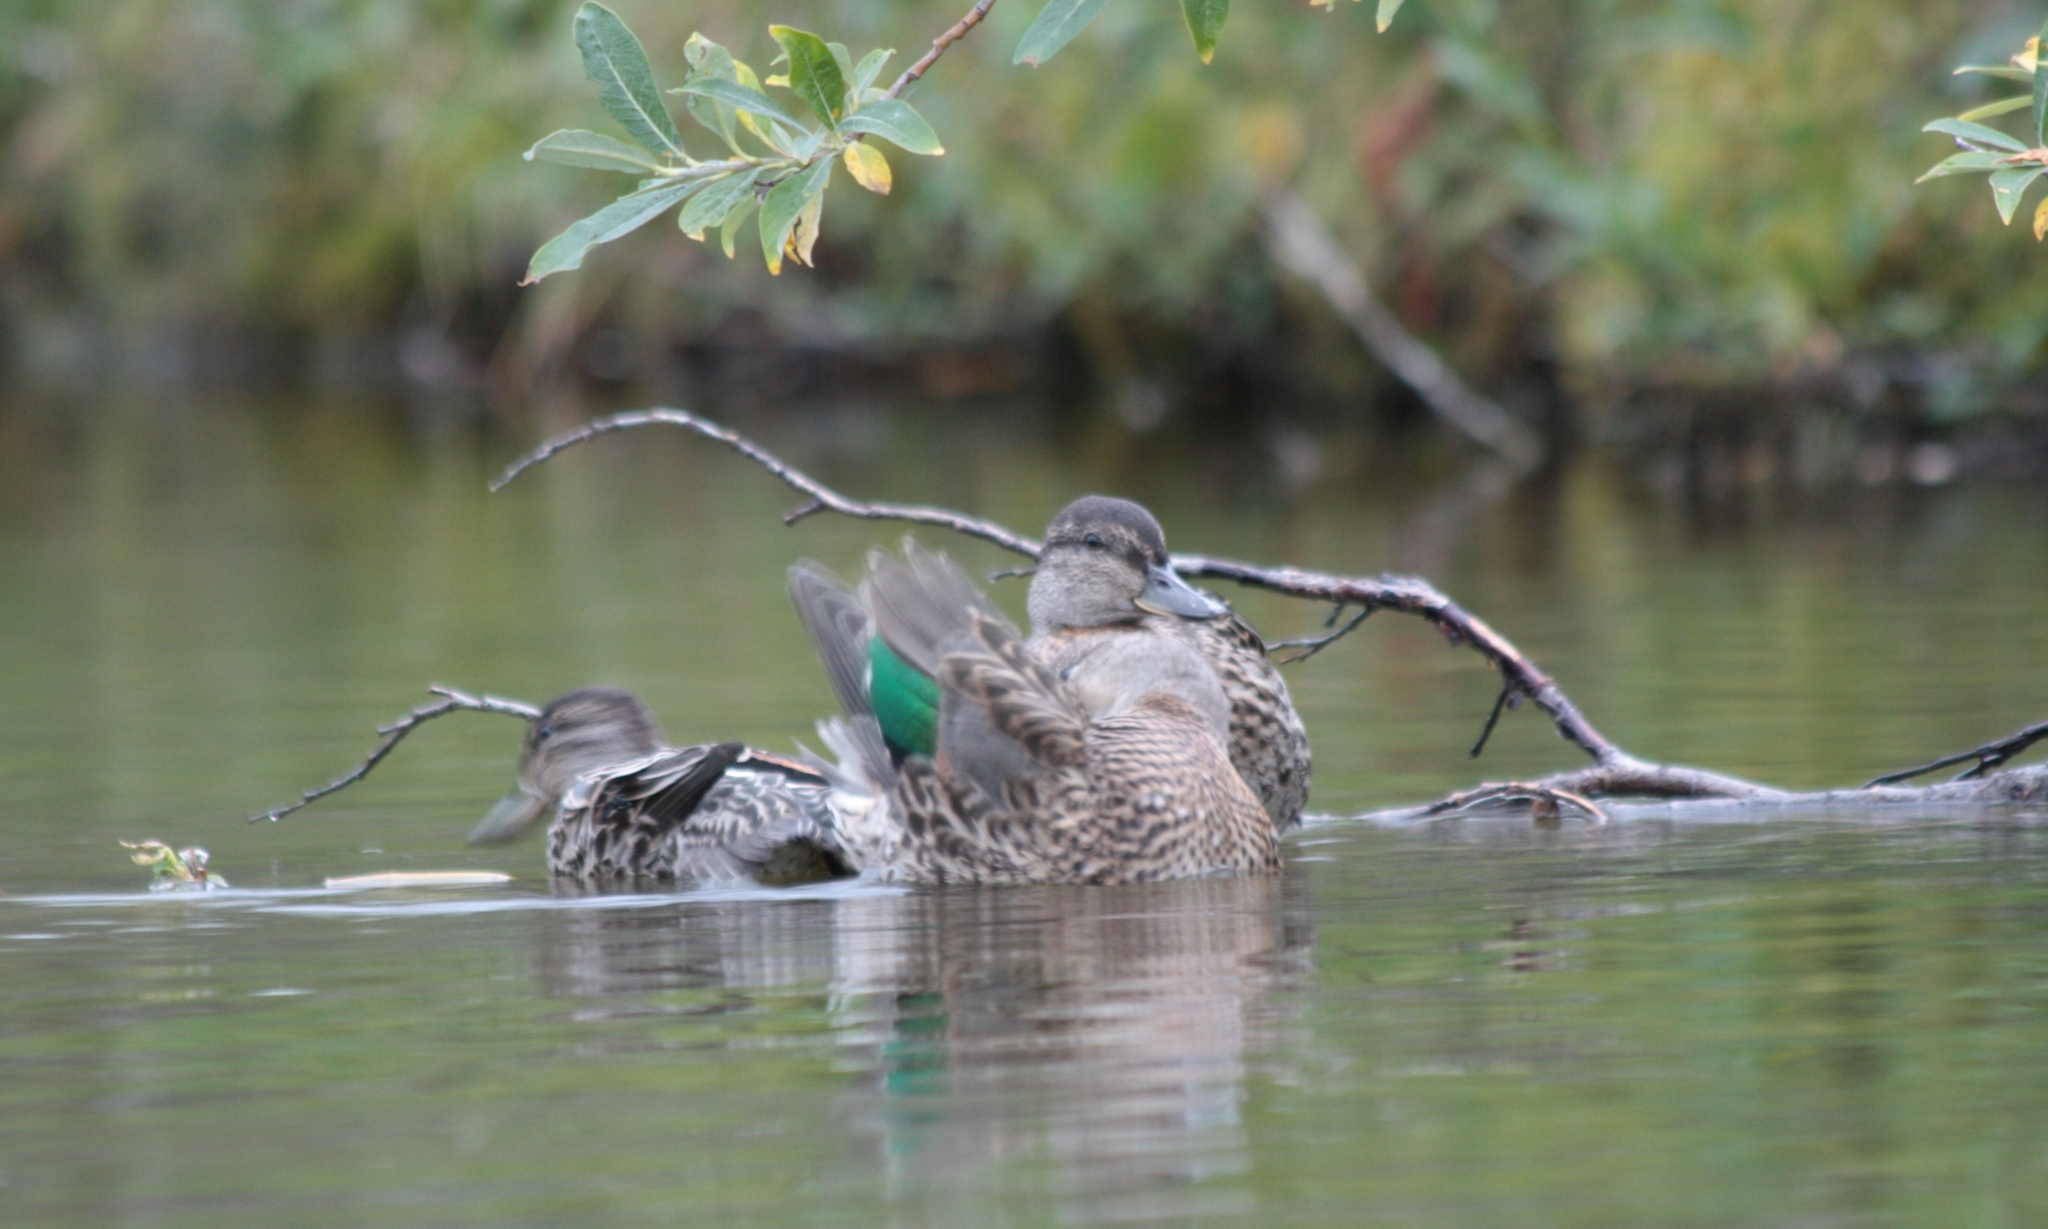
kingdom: Animalia
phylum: Chordata
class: Aves
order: Anseriformes
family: Anatidae
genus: Anas
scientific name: Anas crecca
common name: Eurasian teal
